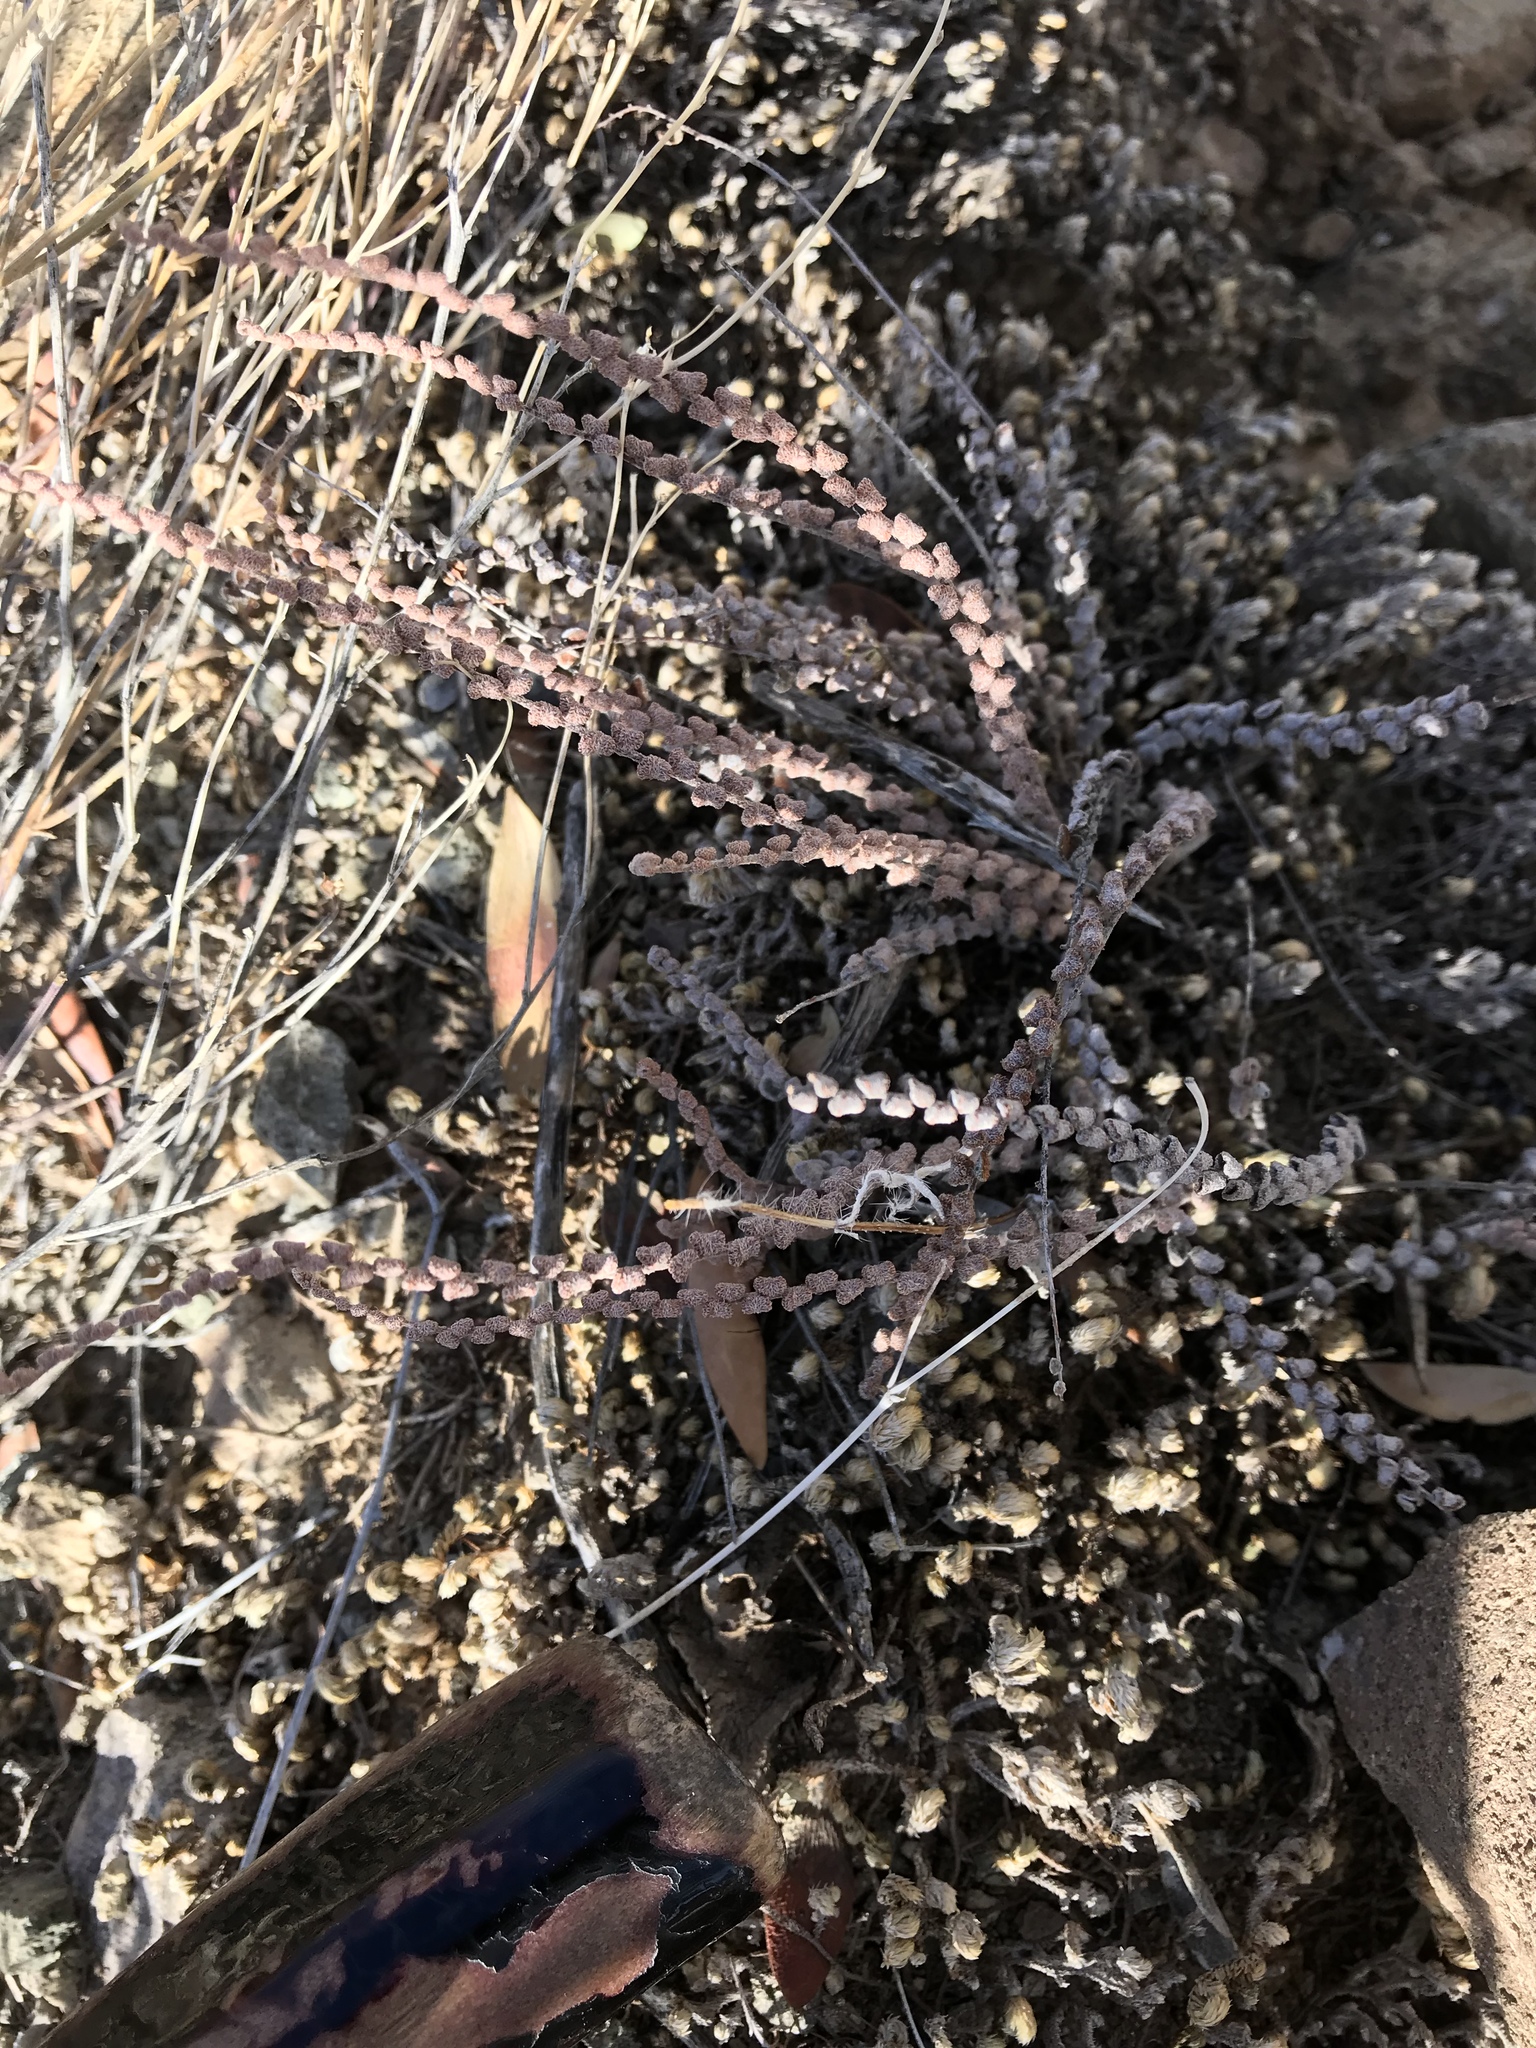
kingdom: Plantae
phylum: Tracheophyta
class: Polypodiopsida
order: Polypodiales
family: Pteridaceae
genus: Astrolepis
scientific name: Astrolepis cochisensis
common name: Scaly cloak fern
